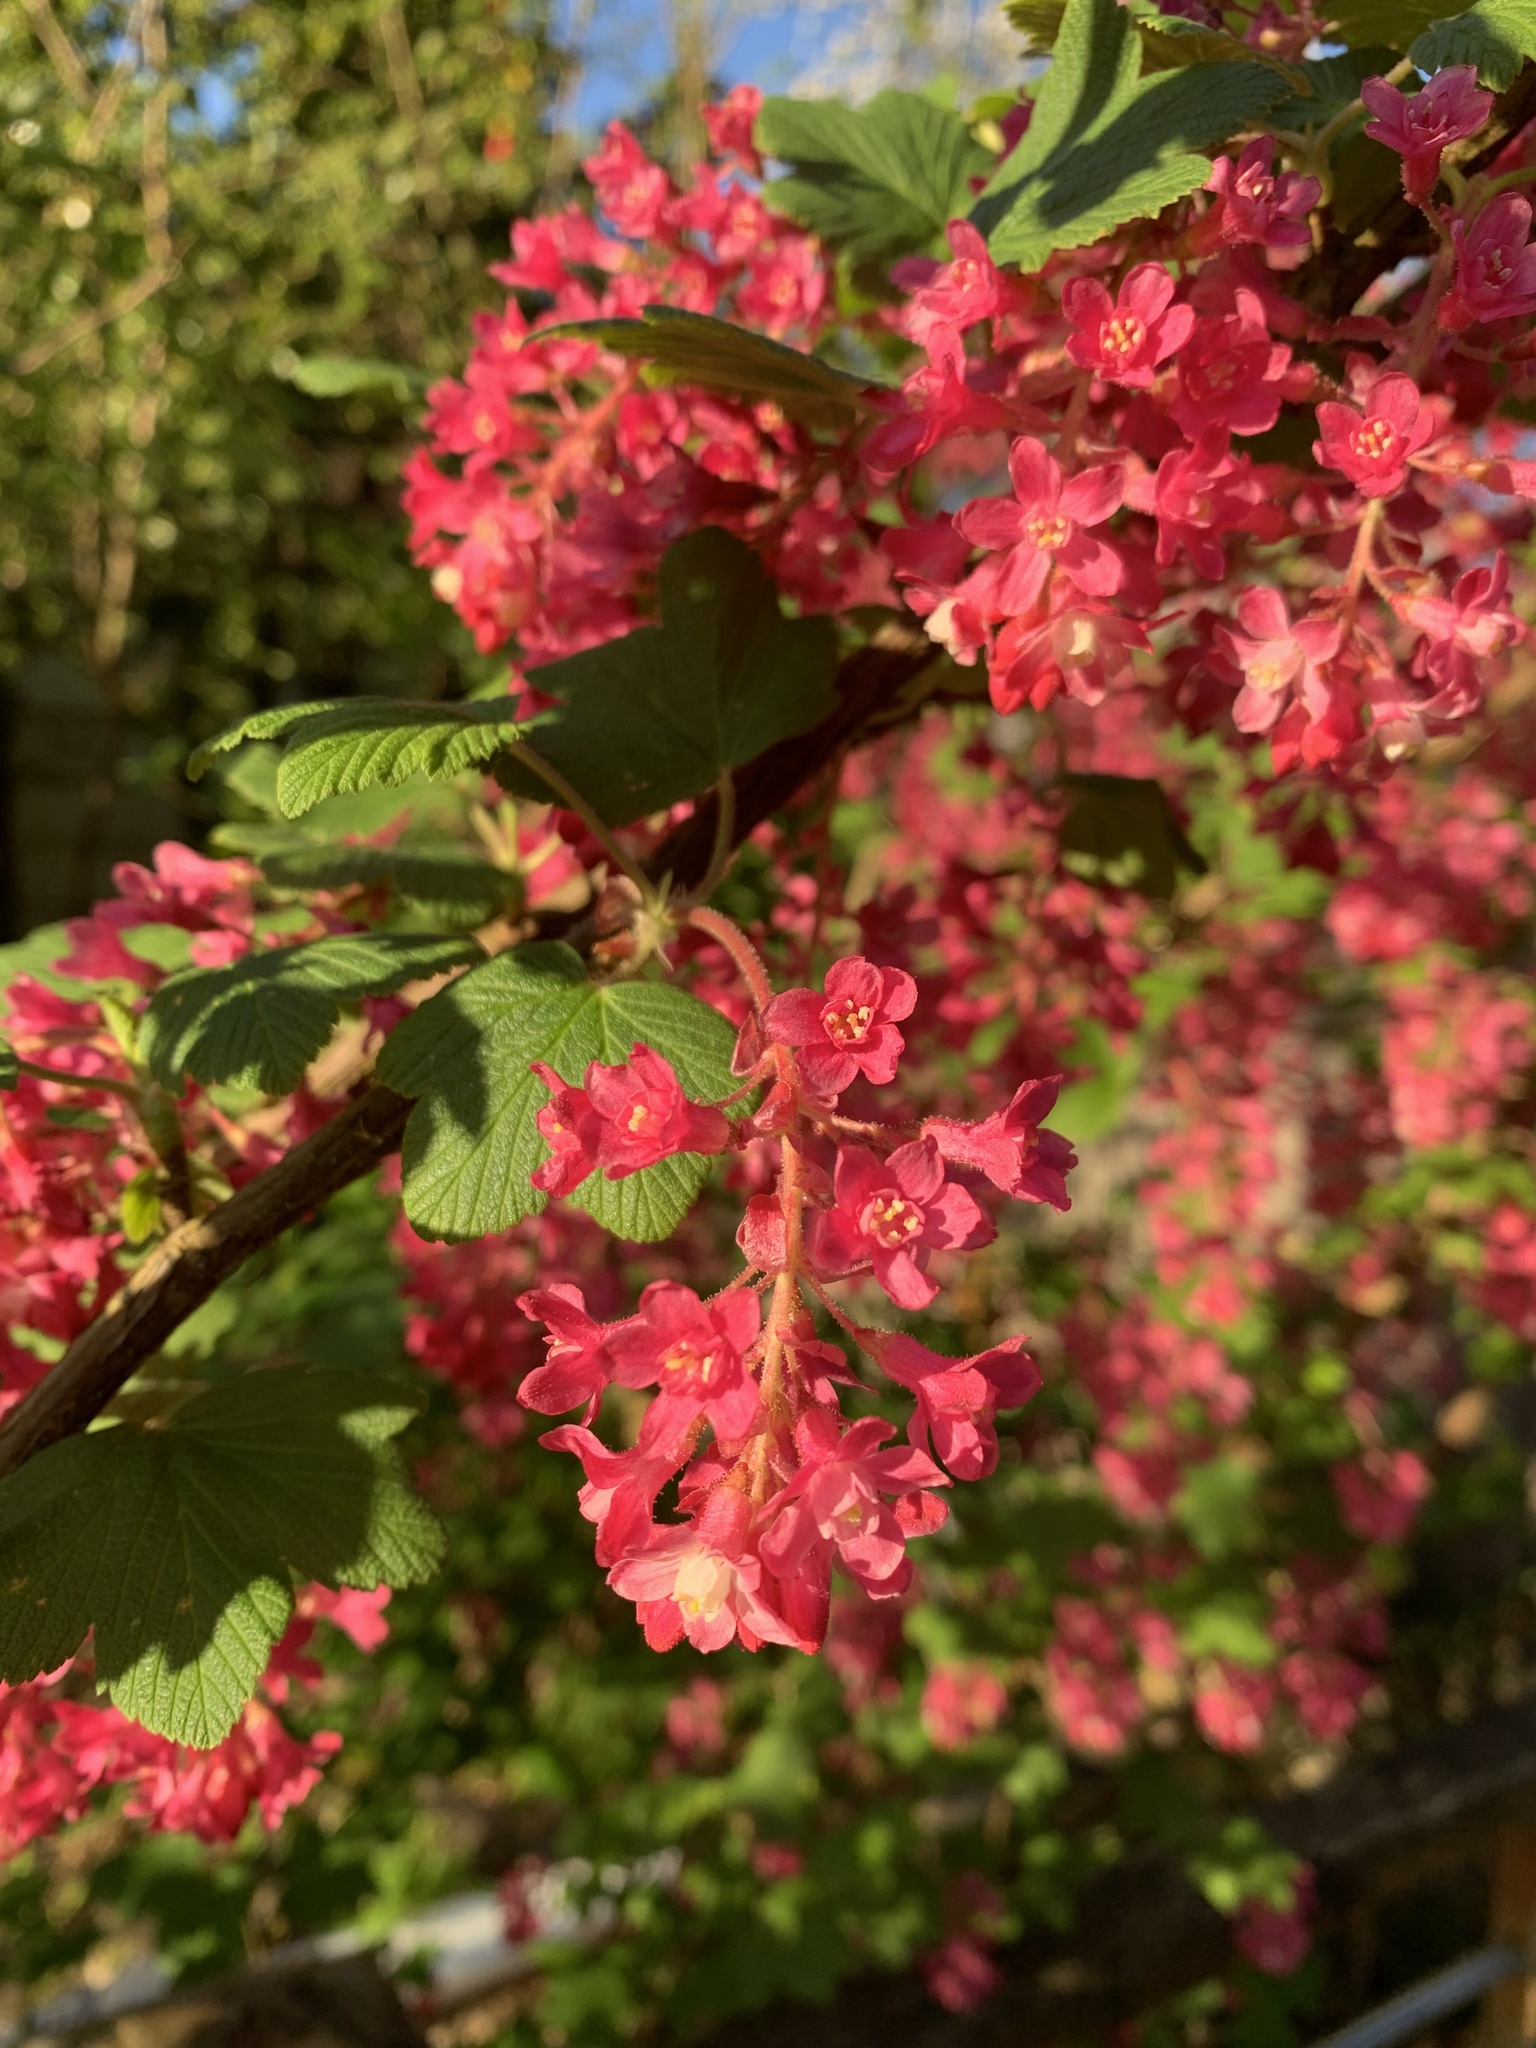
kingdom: Plantae
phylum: Tracheophyta
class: Magnoliopsida
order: Saxifragales
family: Grossulariaceae
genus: Ribes
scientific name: Ribes sanguineum
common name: Flowering currant
